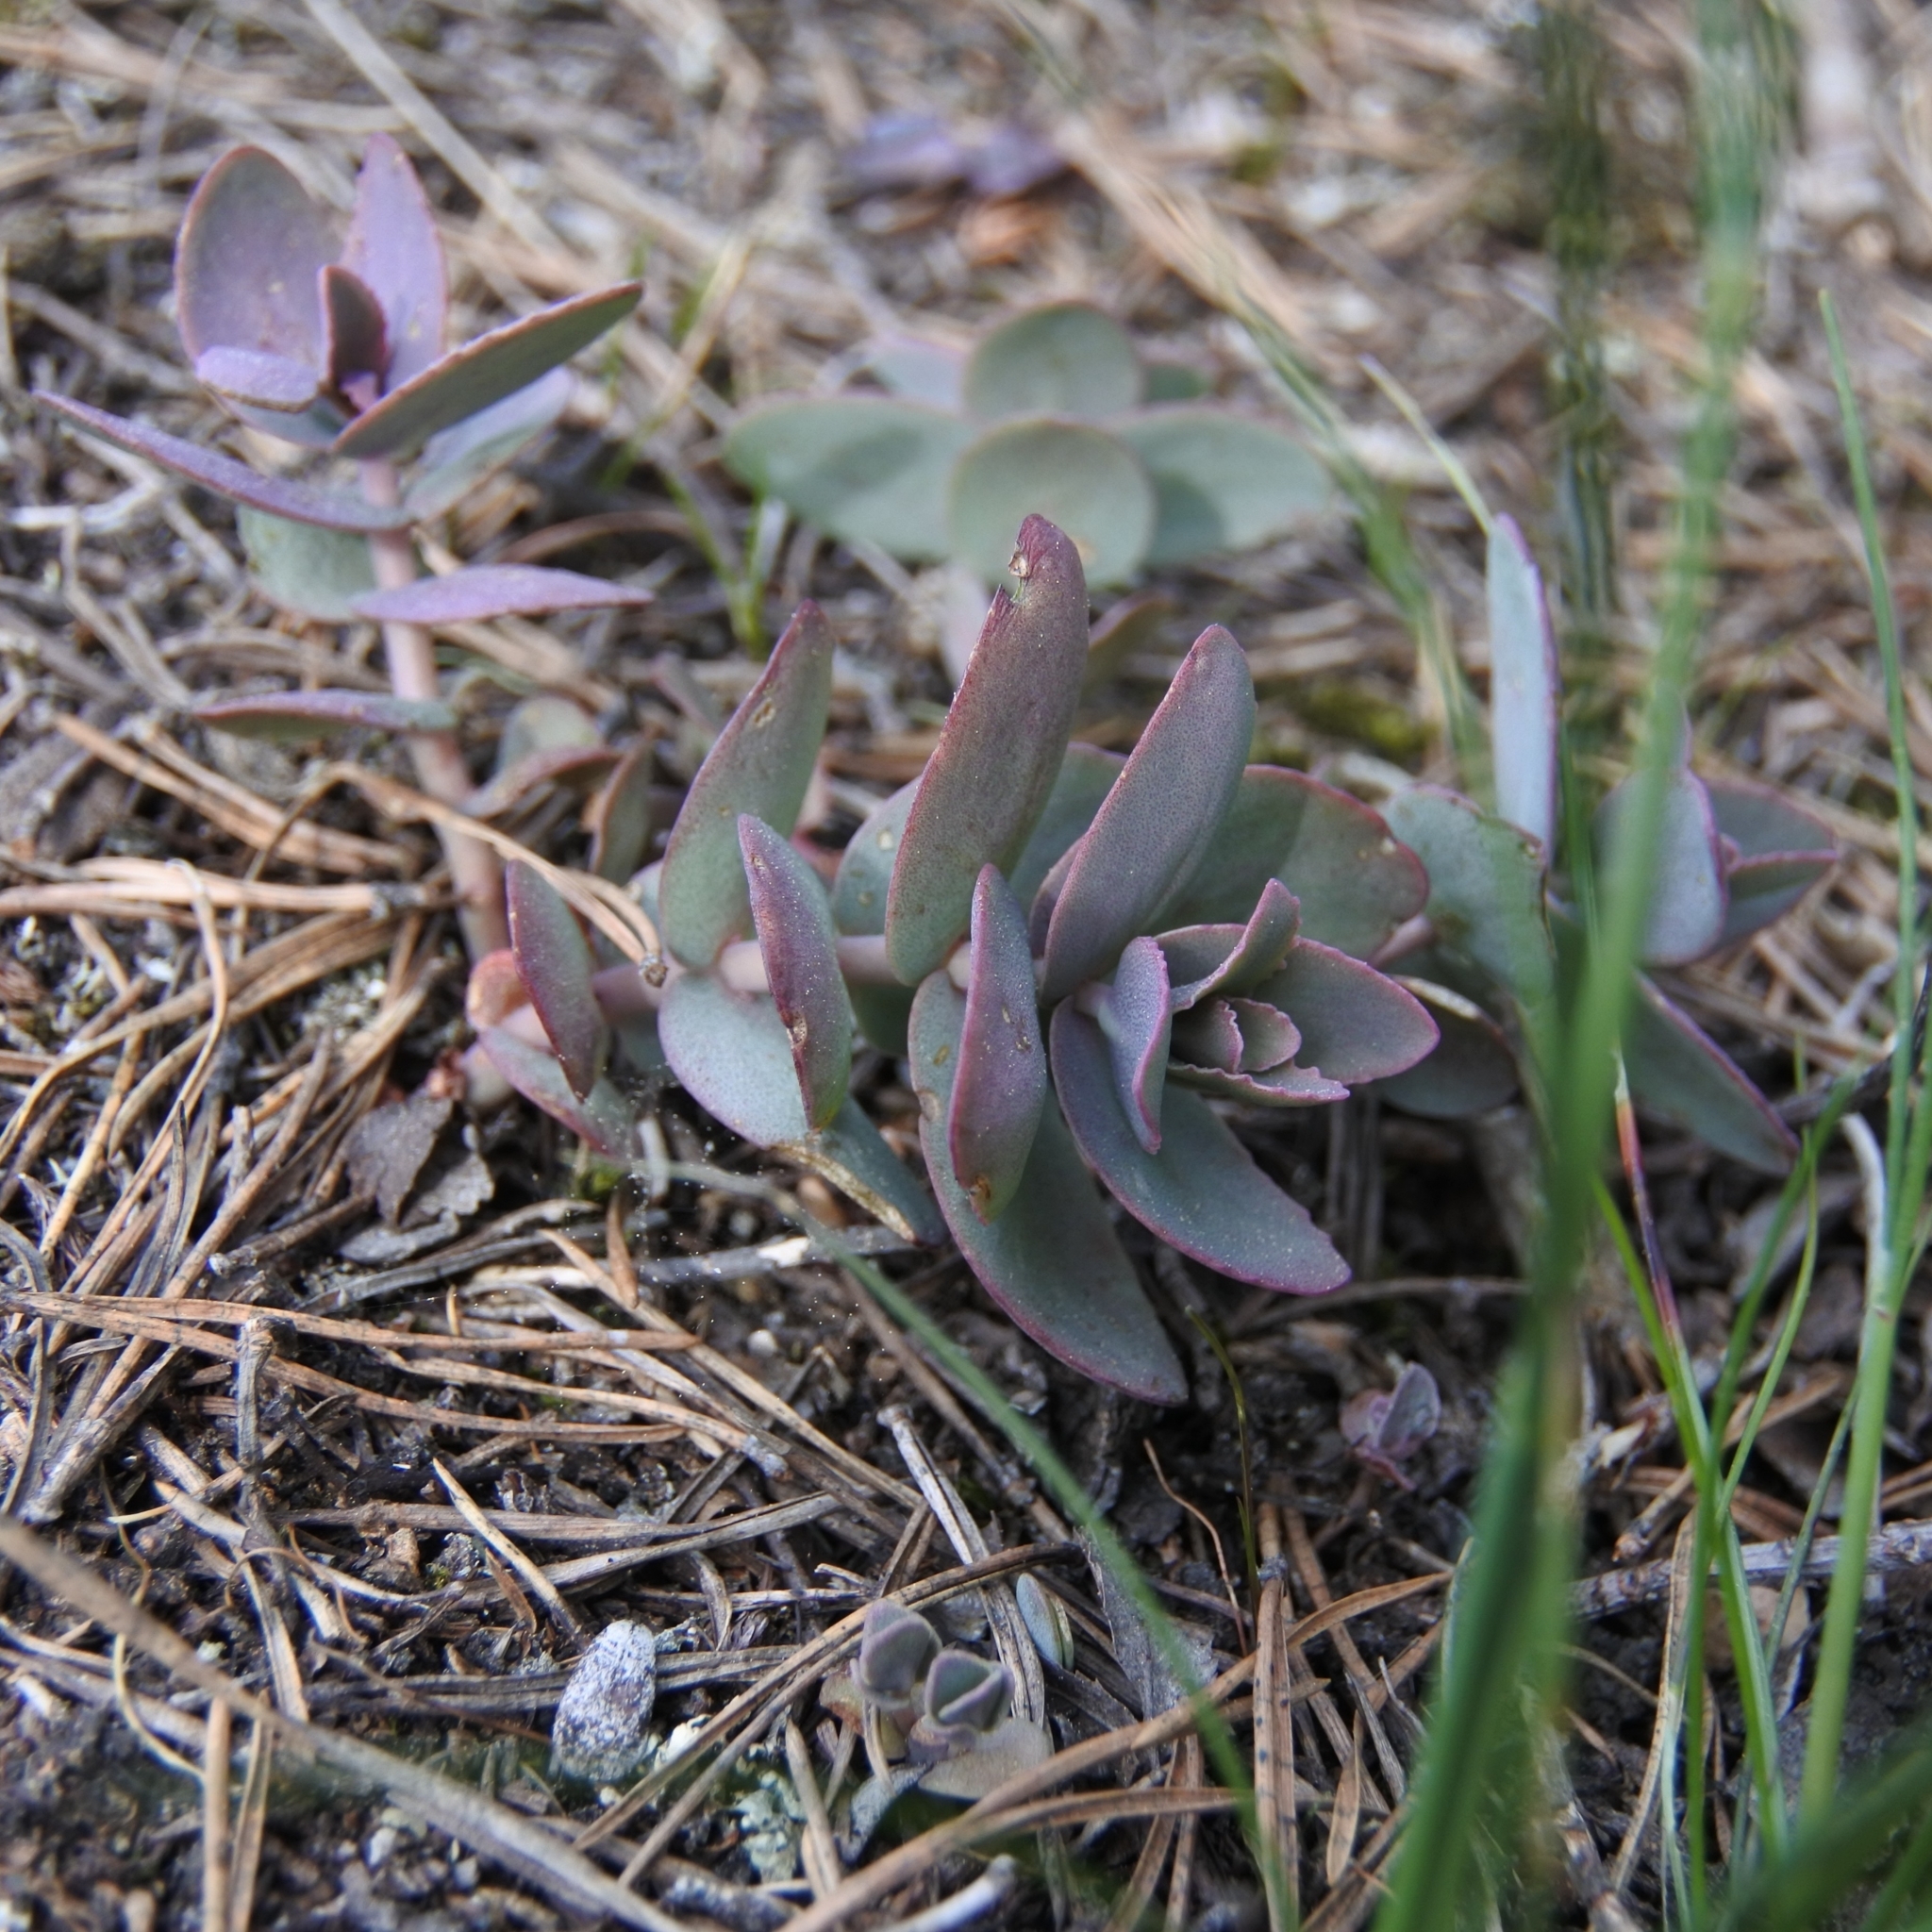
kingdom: Plantae
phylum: Tracheophyta
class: Magnoliopsida
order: Saxifragales
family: Crassulaceae
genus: Hylotelephium
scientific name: Hylotelephium maximum
